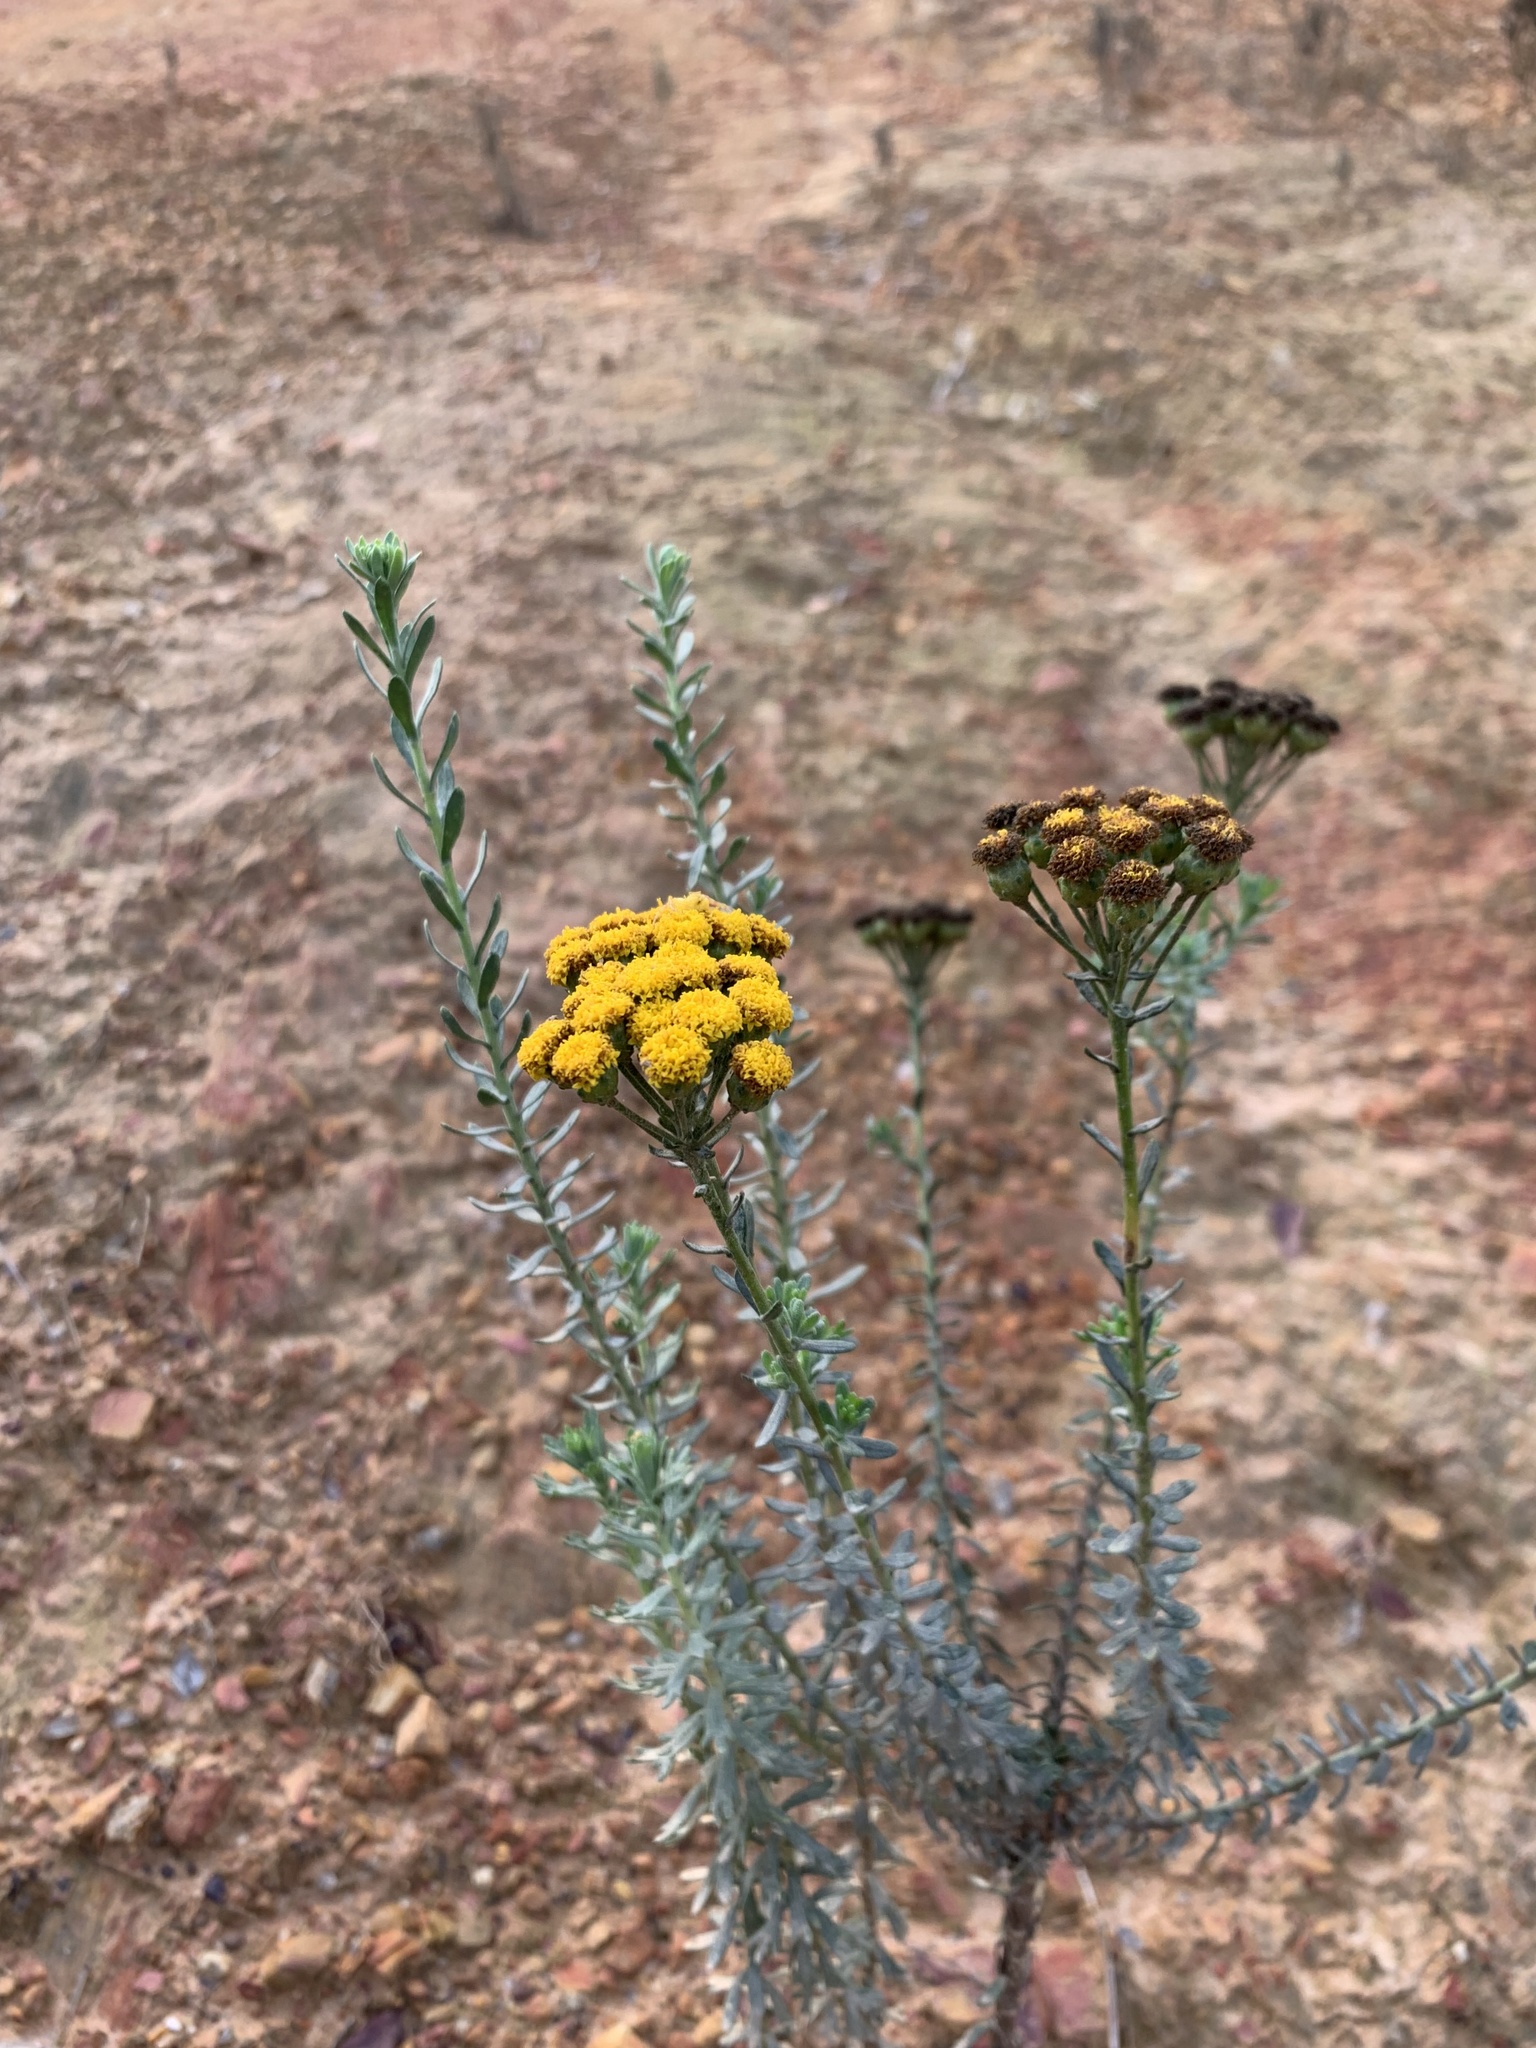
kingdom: Plantae
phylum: Tracheophyta
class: Magnoliopsida
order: Asterales
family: Asteraceae
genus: Athanasia
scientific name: Athanasia trifurcata
